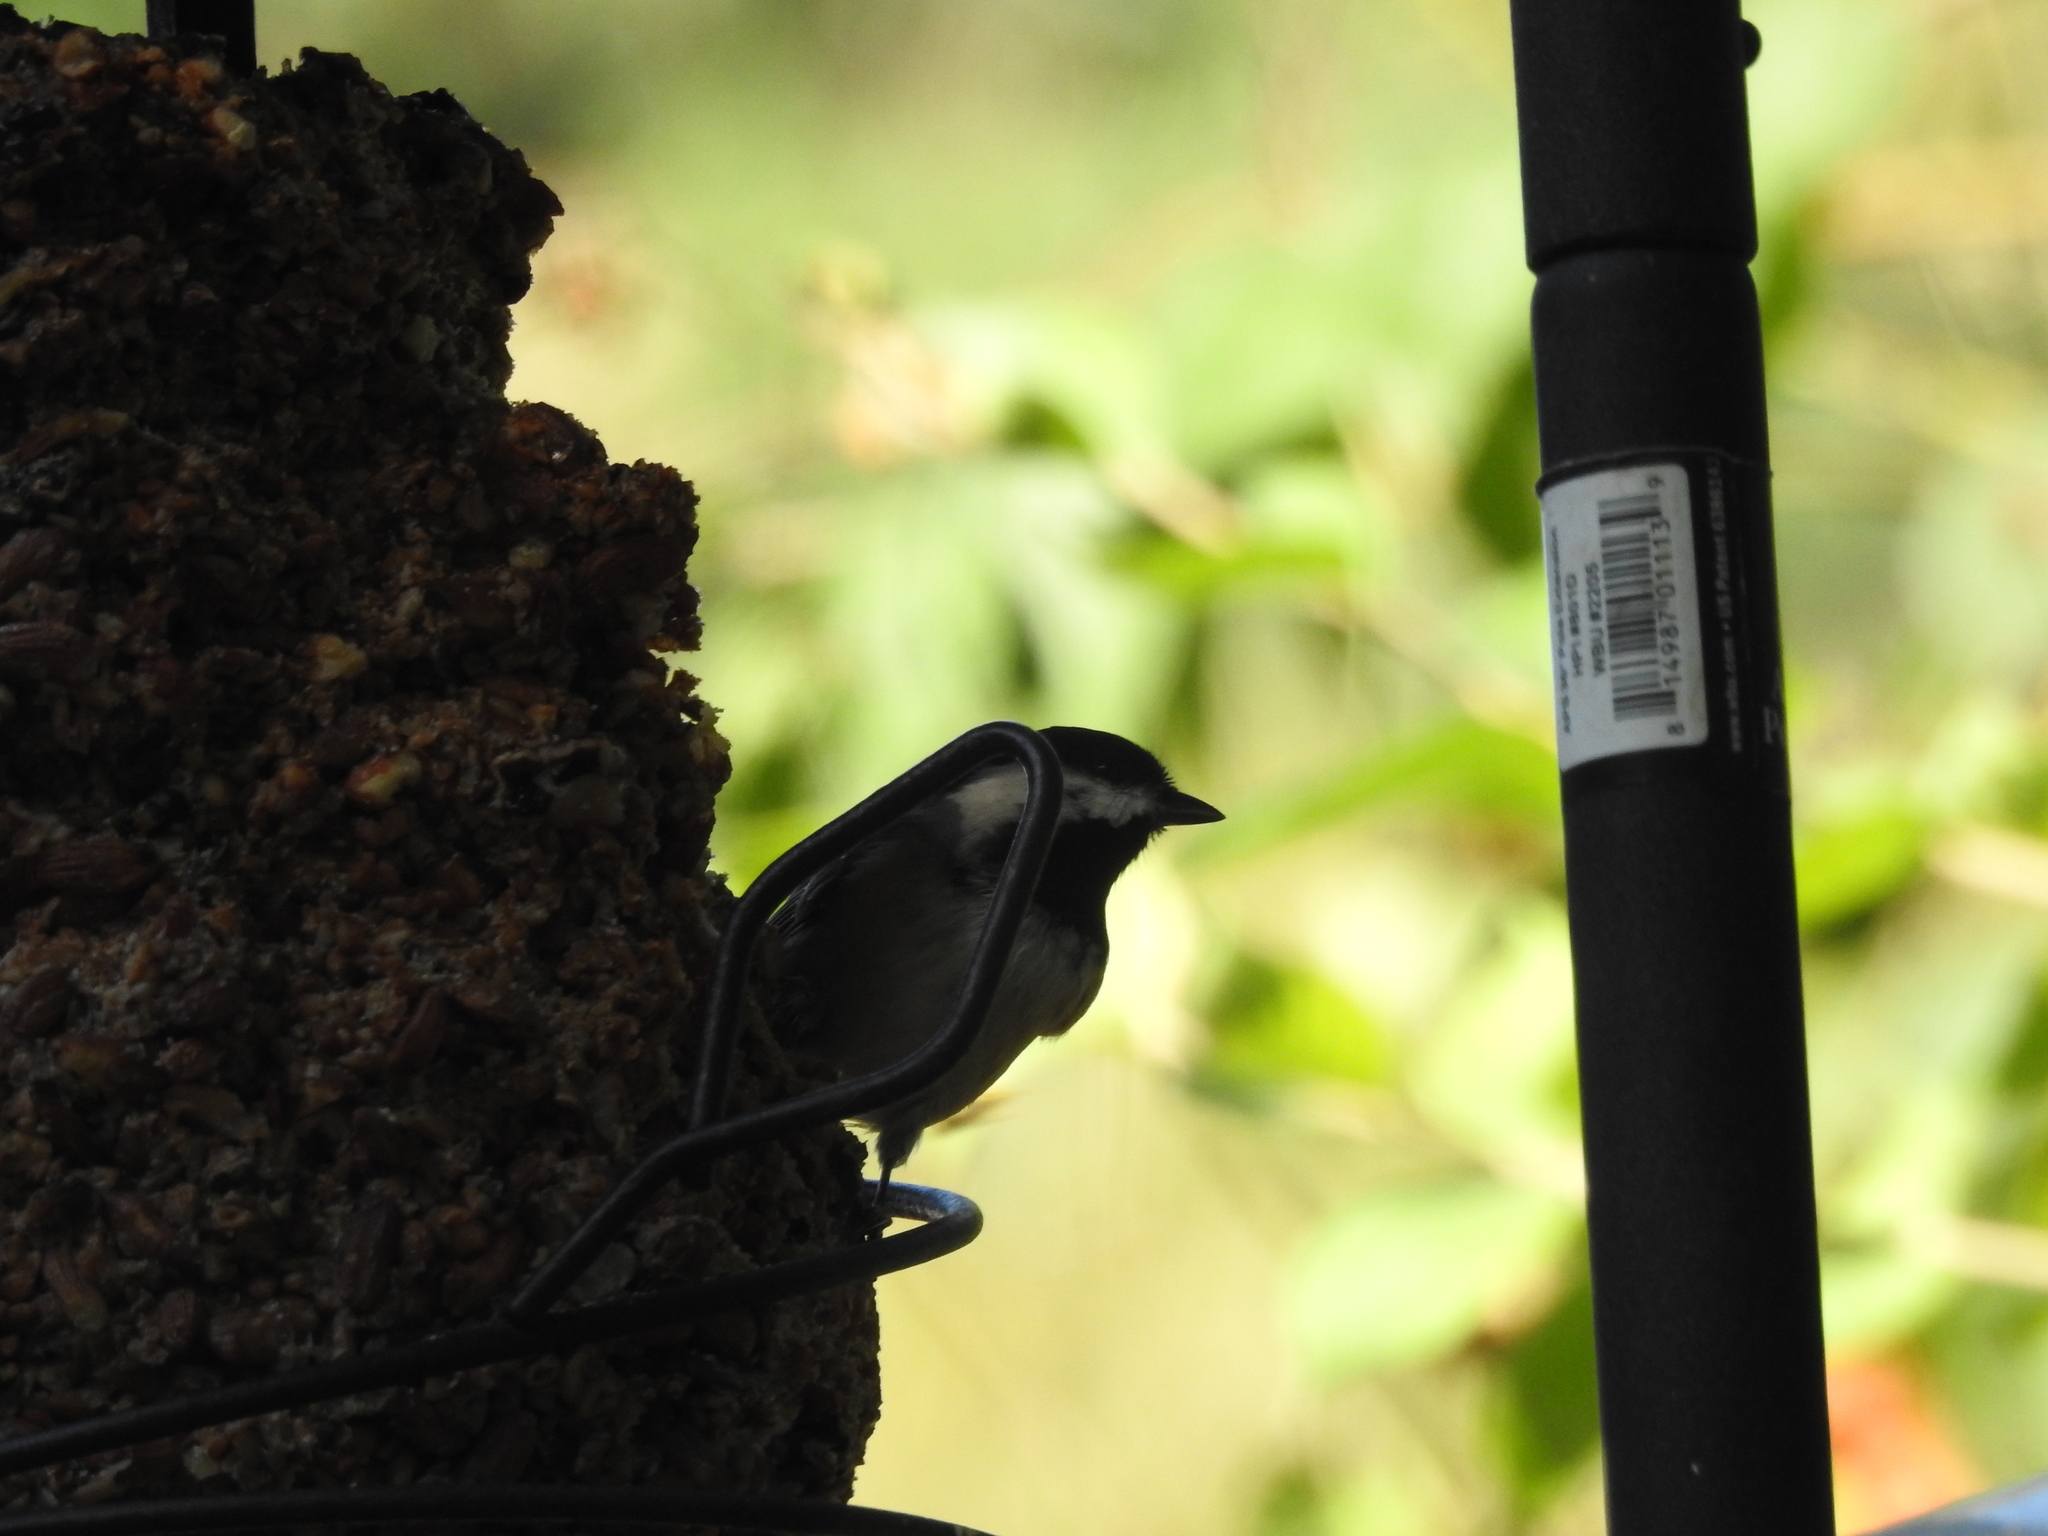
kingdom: Animalia
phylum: Chordata
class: Aves
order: Passeriformes
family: Paridae
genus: Poecile
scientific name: Poecile carolinensis
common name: Carolina chickadee
